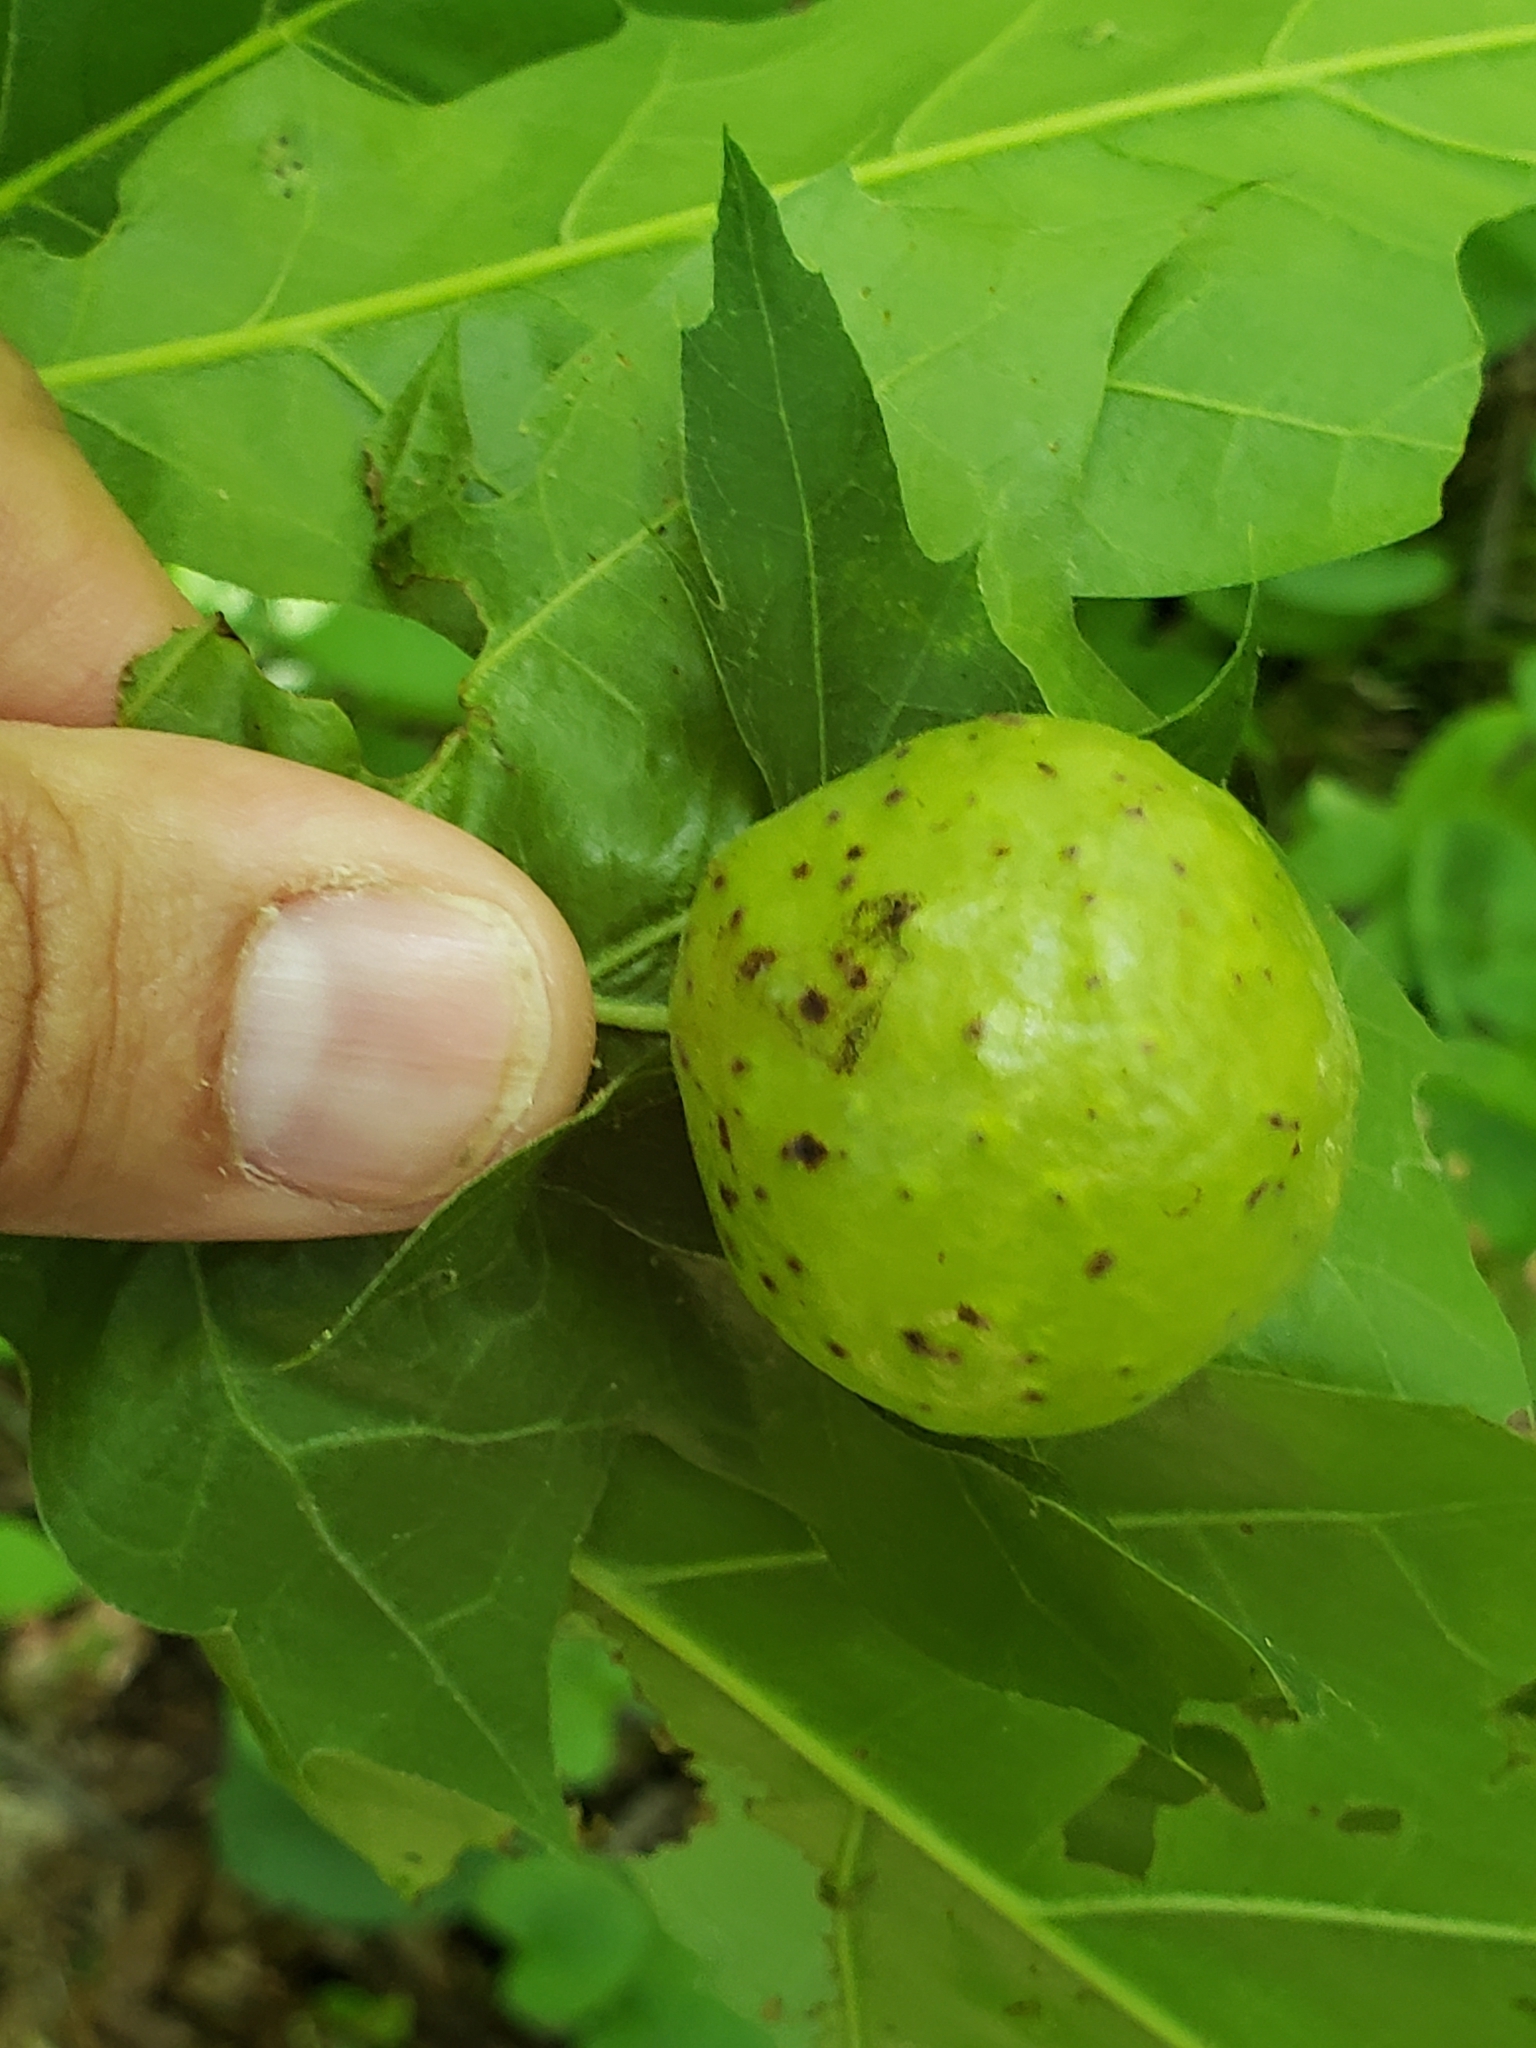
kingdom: Animalia
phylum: Arthropoda
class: Insecta
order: Hymenoptera
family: Cynipidae
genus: Amphibolips
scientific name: Amphibolips
